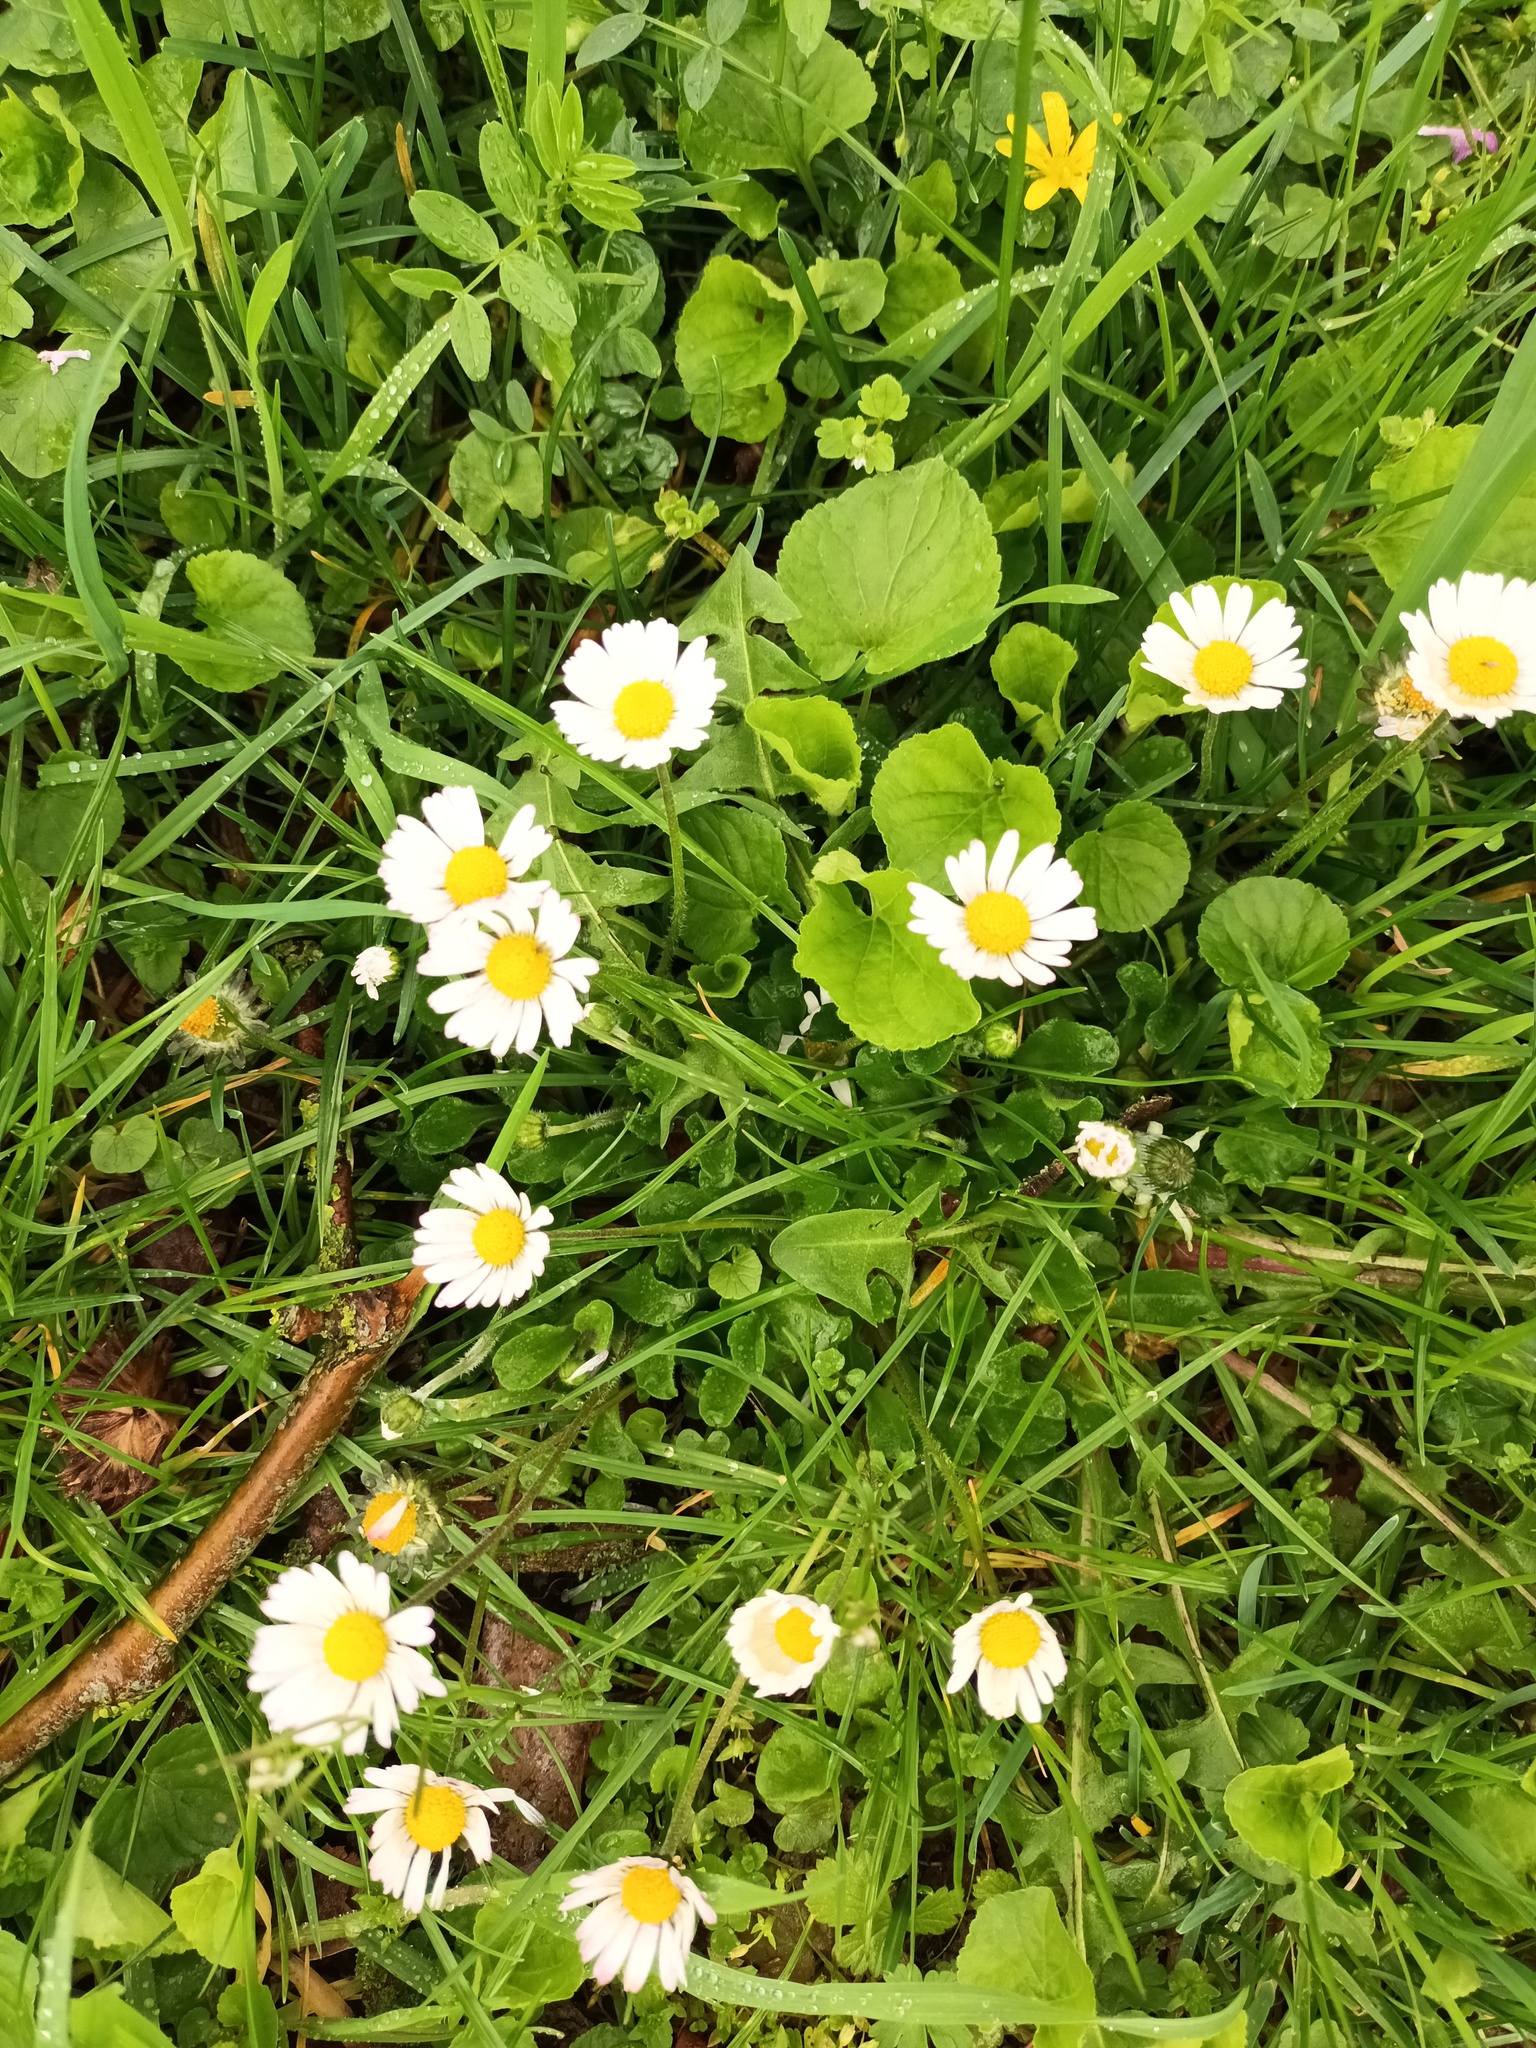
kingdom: Plantae
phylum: Tracheophyta
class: Magnoliopsida
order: Asterales
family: Asteraceae
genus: Bellis
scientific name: Bellis perennis
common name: Lawndaisy
